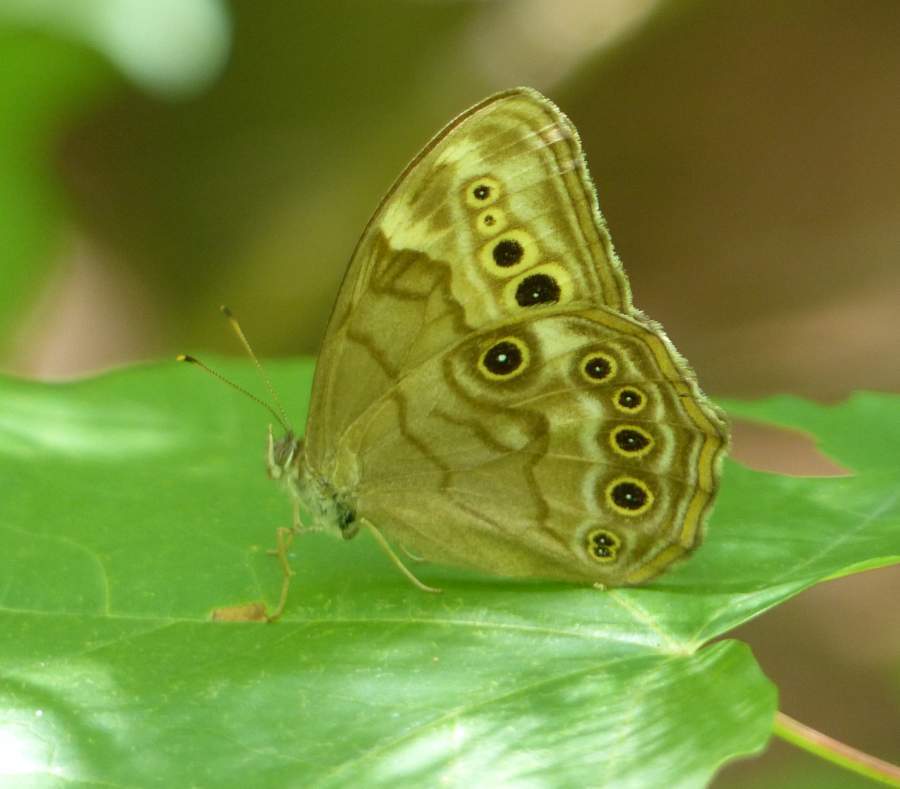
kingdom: Animalia
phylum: Arthropoda
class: Insecta
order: Lepidoptera
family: Nymphalidae
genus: Lethe
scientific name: Lethe anthedon
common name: Northern pearly-eye
